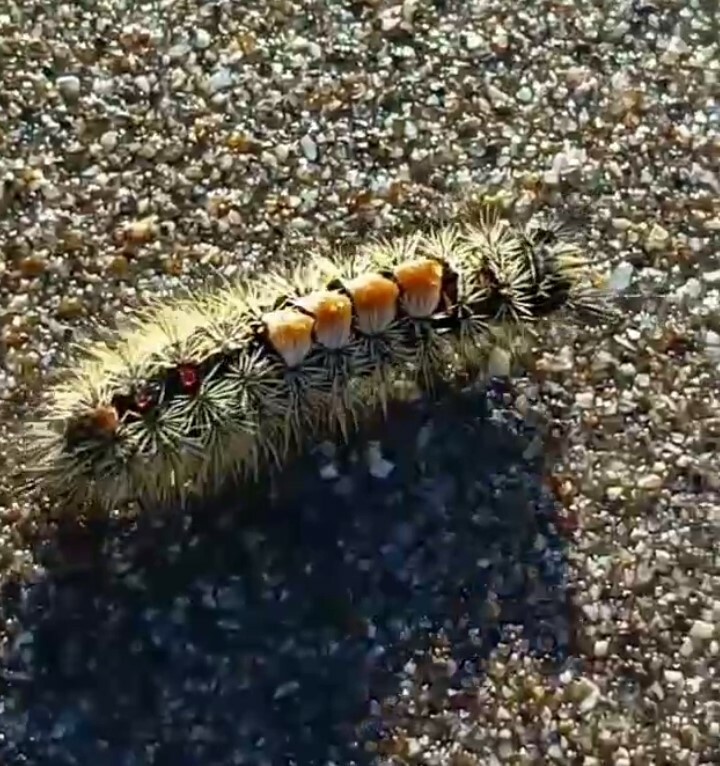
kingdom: Animalia
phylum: Arthropoda
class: Insecta
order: Lepidoptera
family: Erebidae
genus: Orgyia
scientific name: Orgyia
